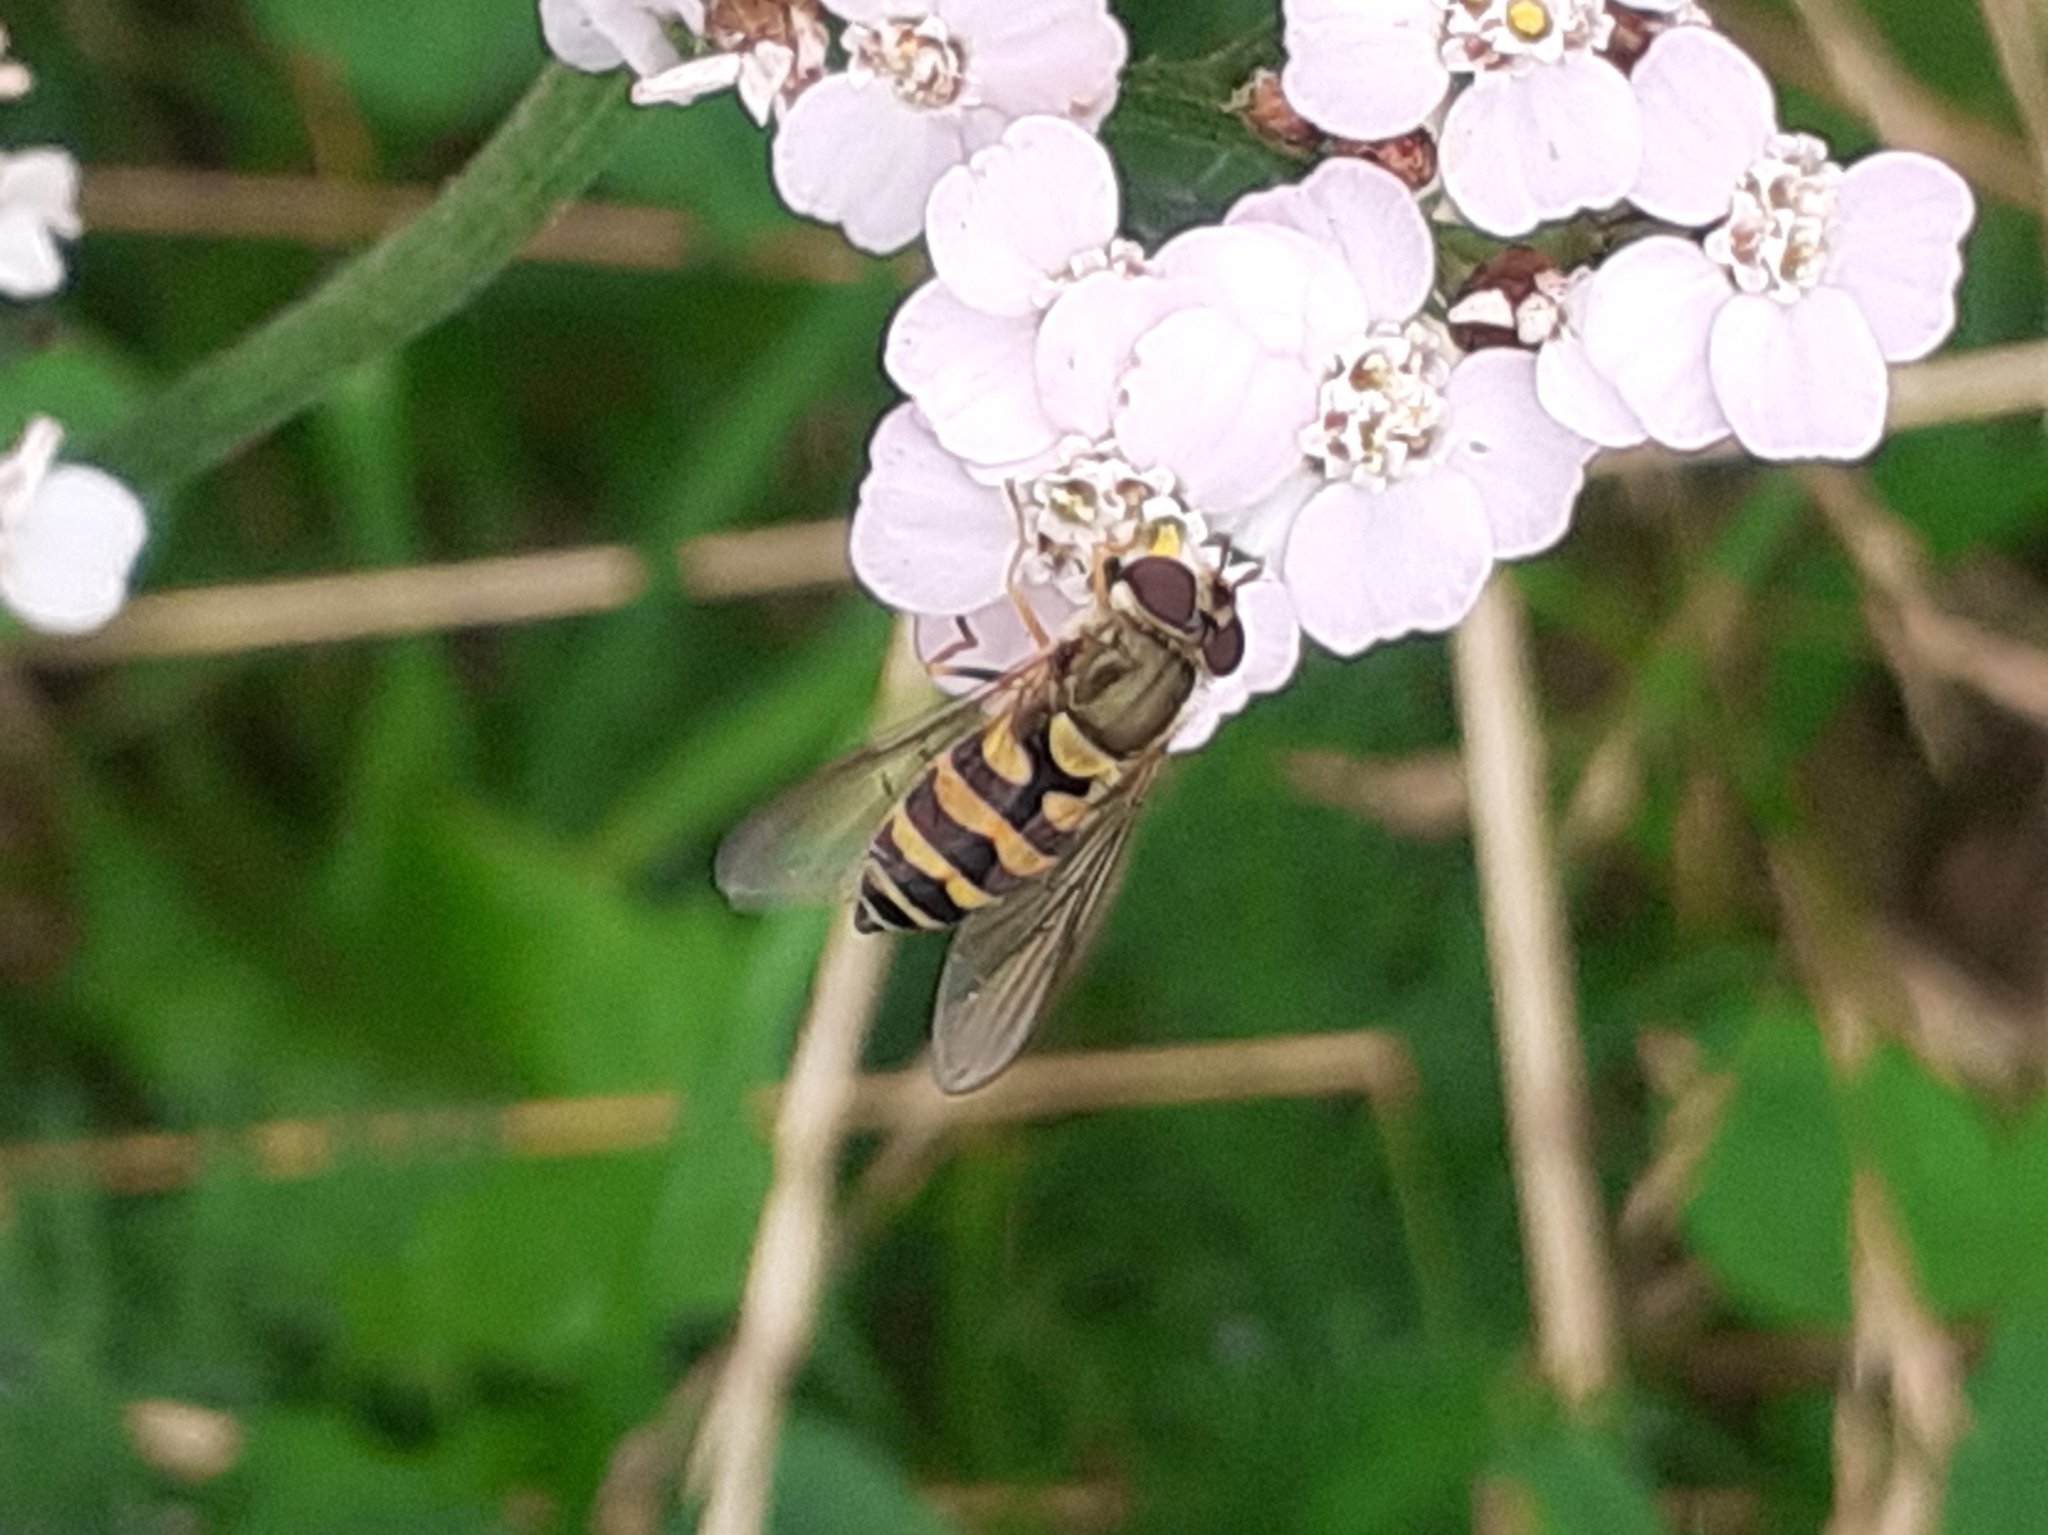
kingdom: Animalia
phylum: Arthropoda
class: Insecta
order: Diptera
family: Syrphidae
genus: Syrphus
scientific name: Syrphus
